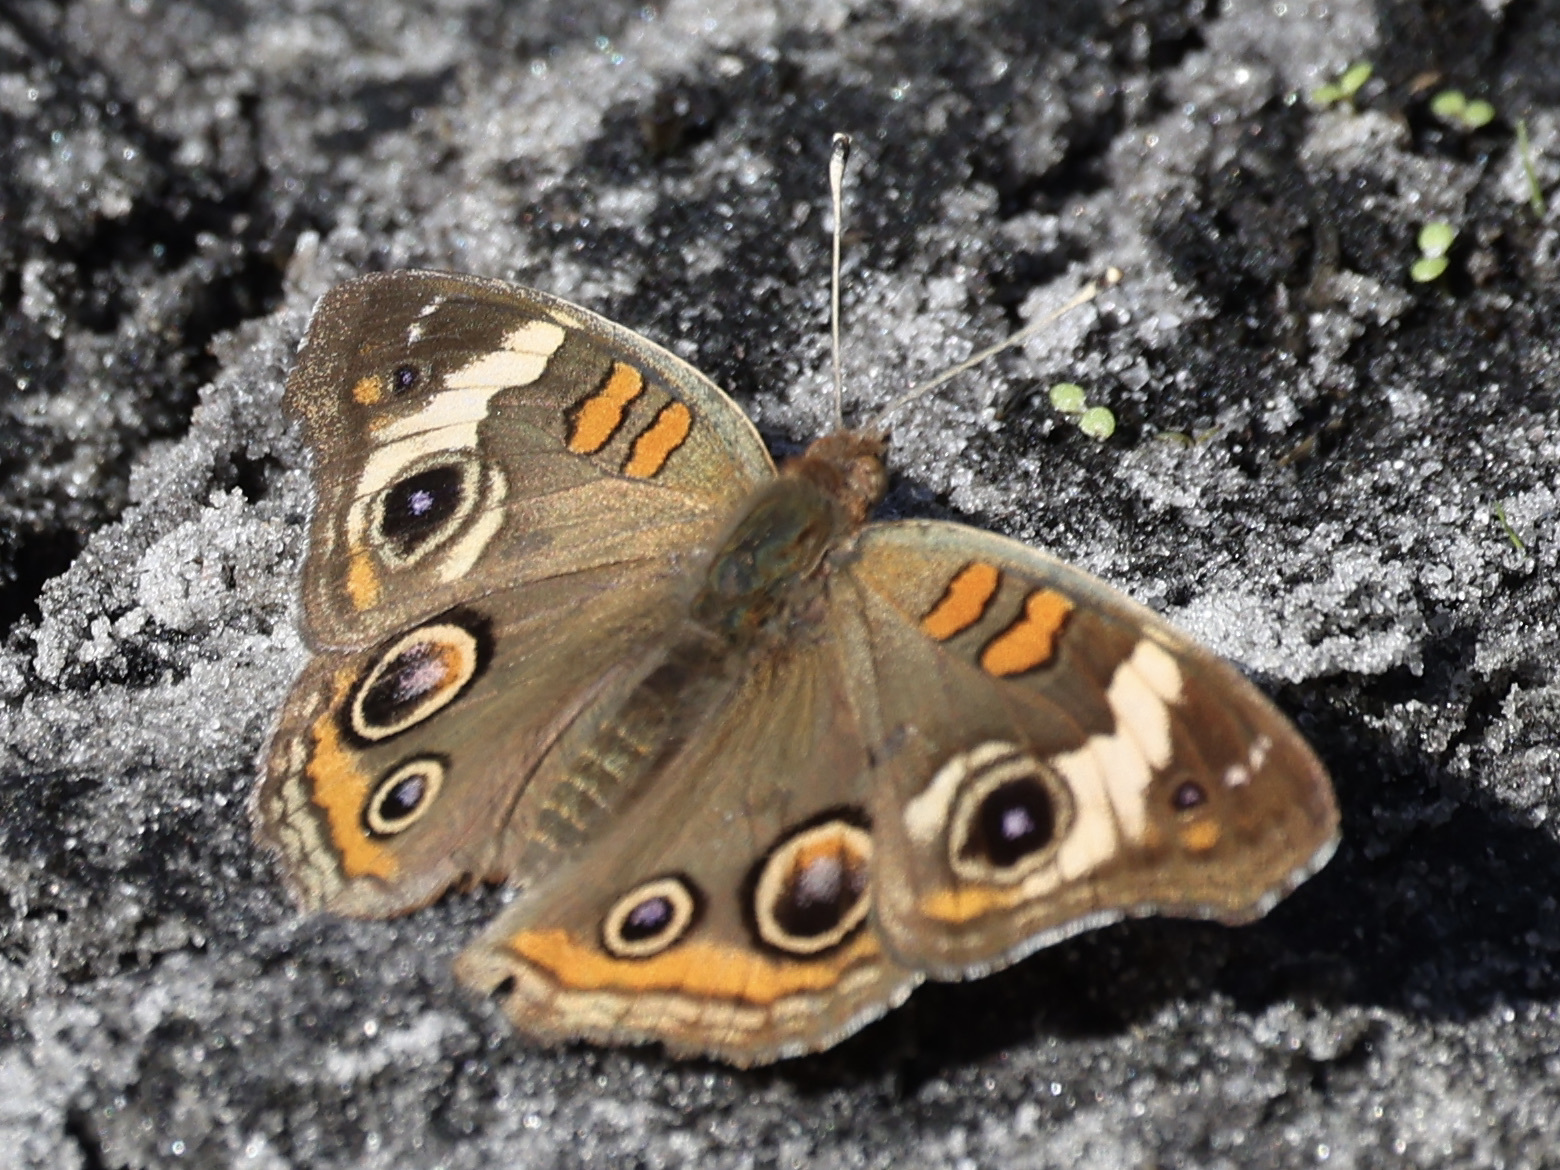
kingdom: Animalia
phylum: Arthropoda
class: Insecta
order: Lepidoptera
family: Nymphalidae
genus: Junonia
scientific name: Junonia coenia
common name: Common buckeye
